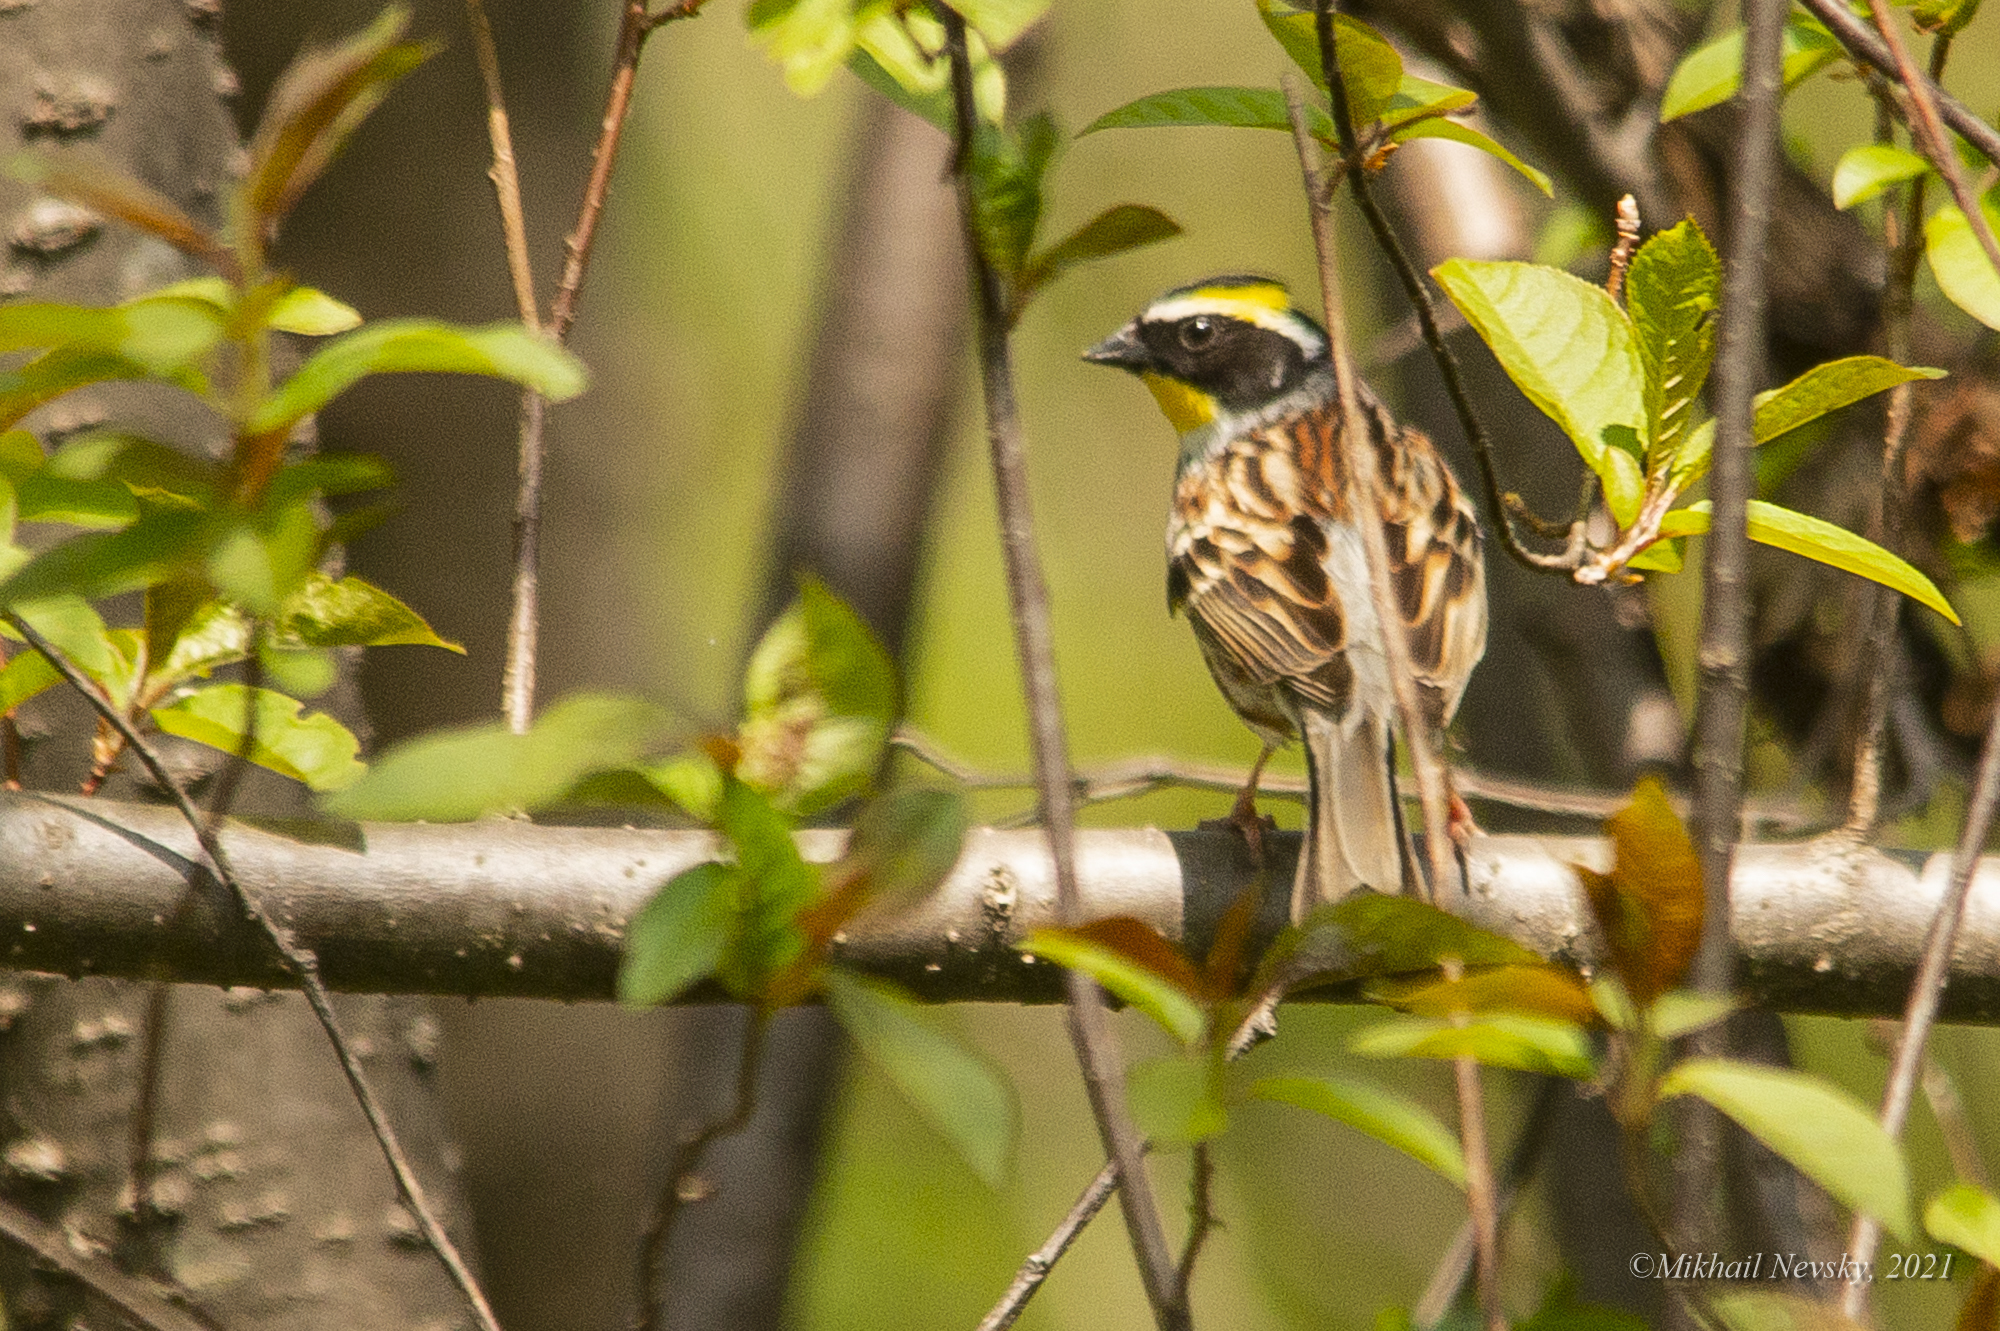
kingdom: Animalia
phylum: Chordata
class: Aves
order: Passeriformes
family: Emberizidae
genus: Emberiza
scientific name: Emberiza elegans
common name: Yellow-throated bunting
